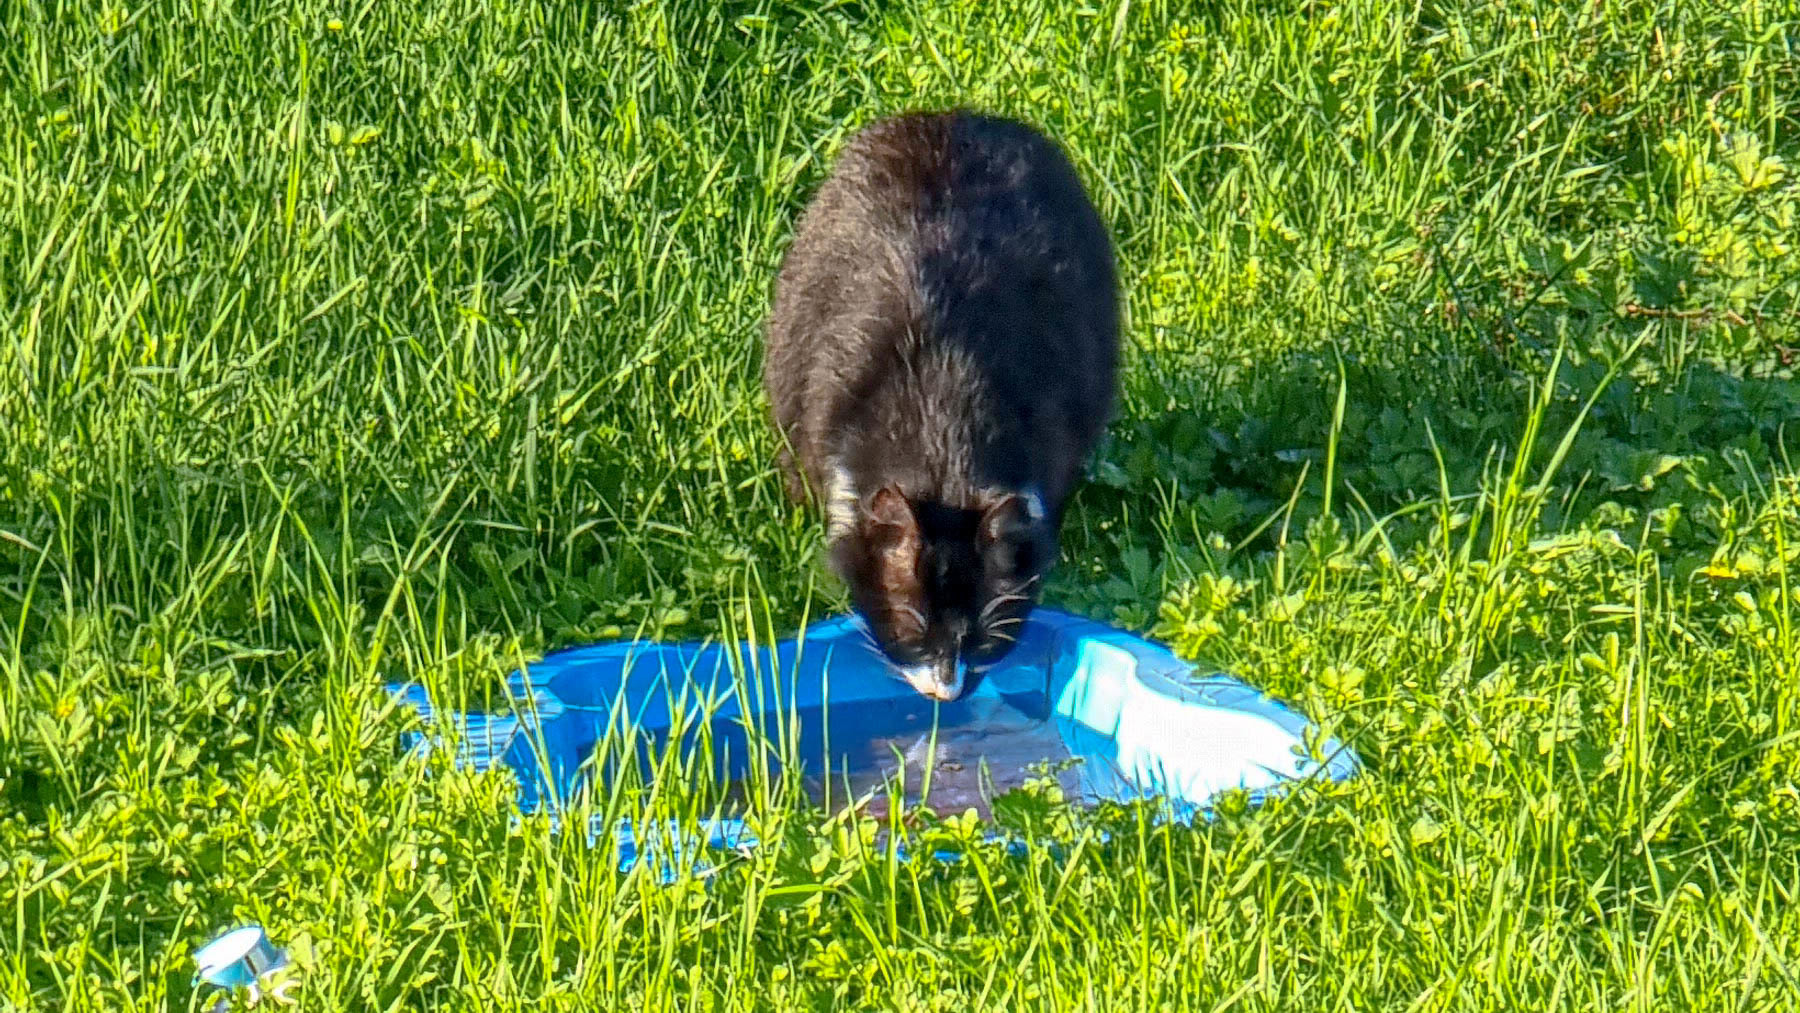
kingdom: Animalia
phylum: Chordata
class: Mammalia
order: Carnivora
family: Felidae
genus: Felis
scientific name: Felis catus
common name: Domestic cat
